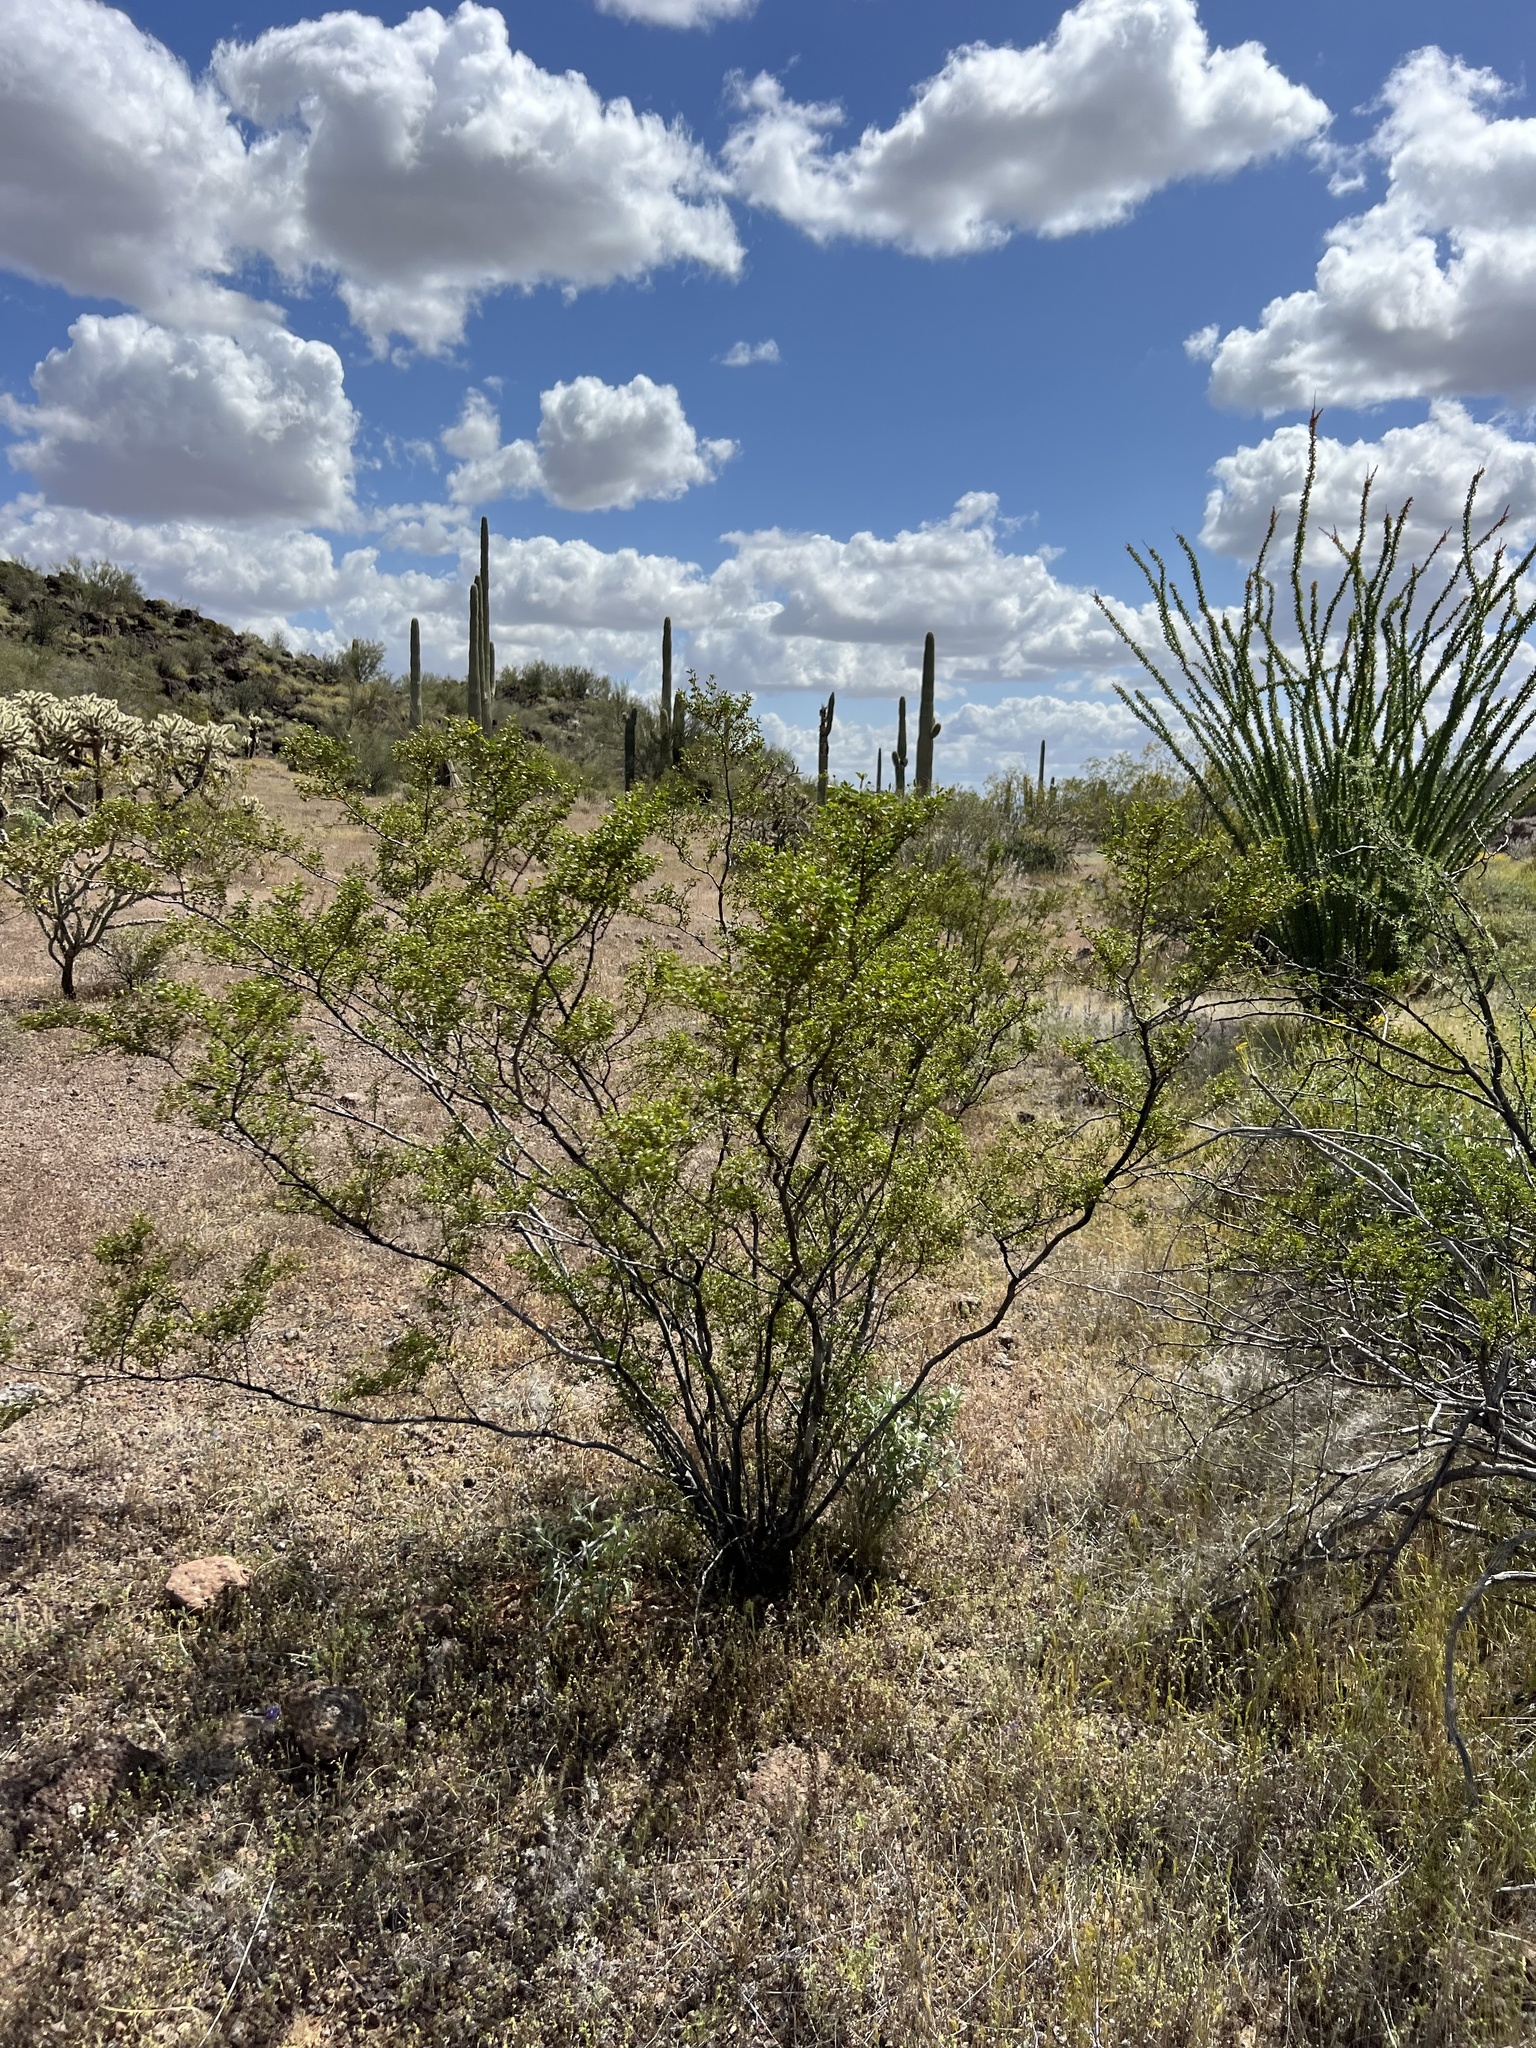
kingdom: Plantae
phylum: Tracheophyta
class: Magnoliopsida
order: Zygophyllales
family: Zygophyllaceae
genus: Larrea
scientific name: Larrea tridentata
